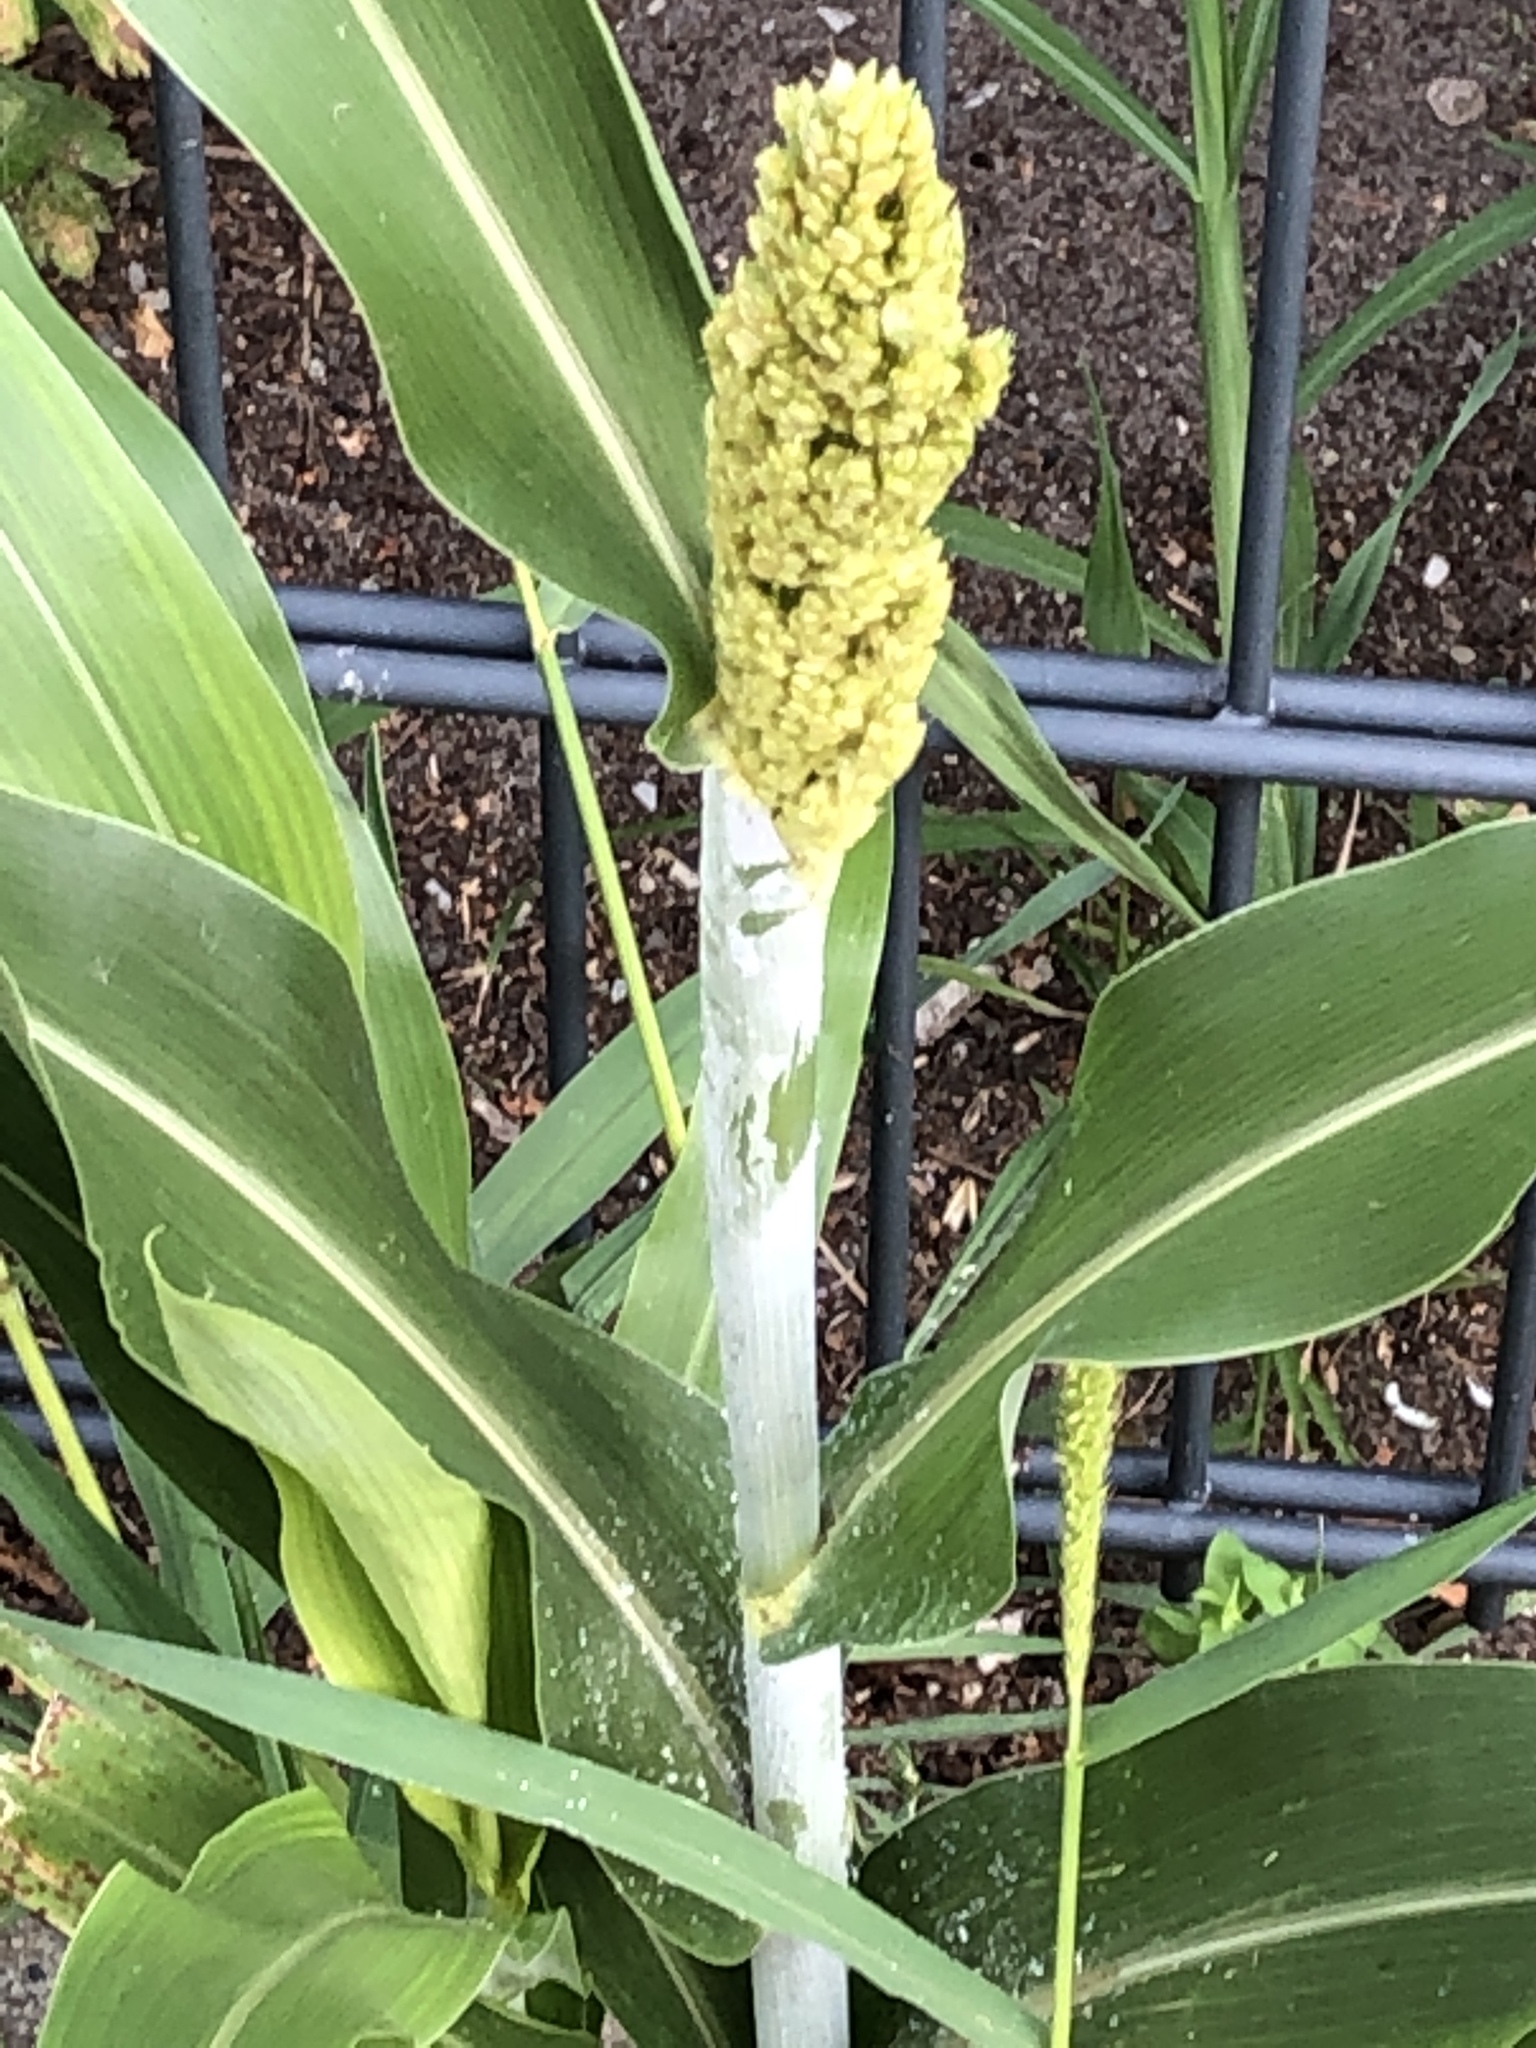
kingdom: Plantae
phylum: Tracheophyta
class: Liliopsida
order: Poales
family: Poaceae
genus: Sorghum
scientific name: Sorghum bicolor
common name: Sorghum
